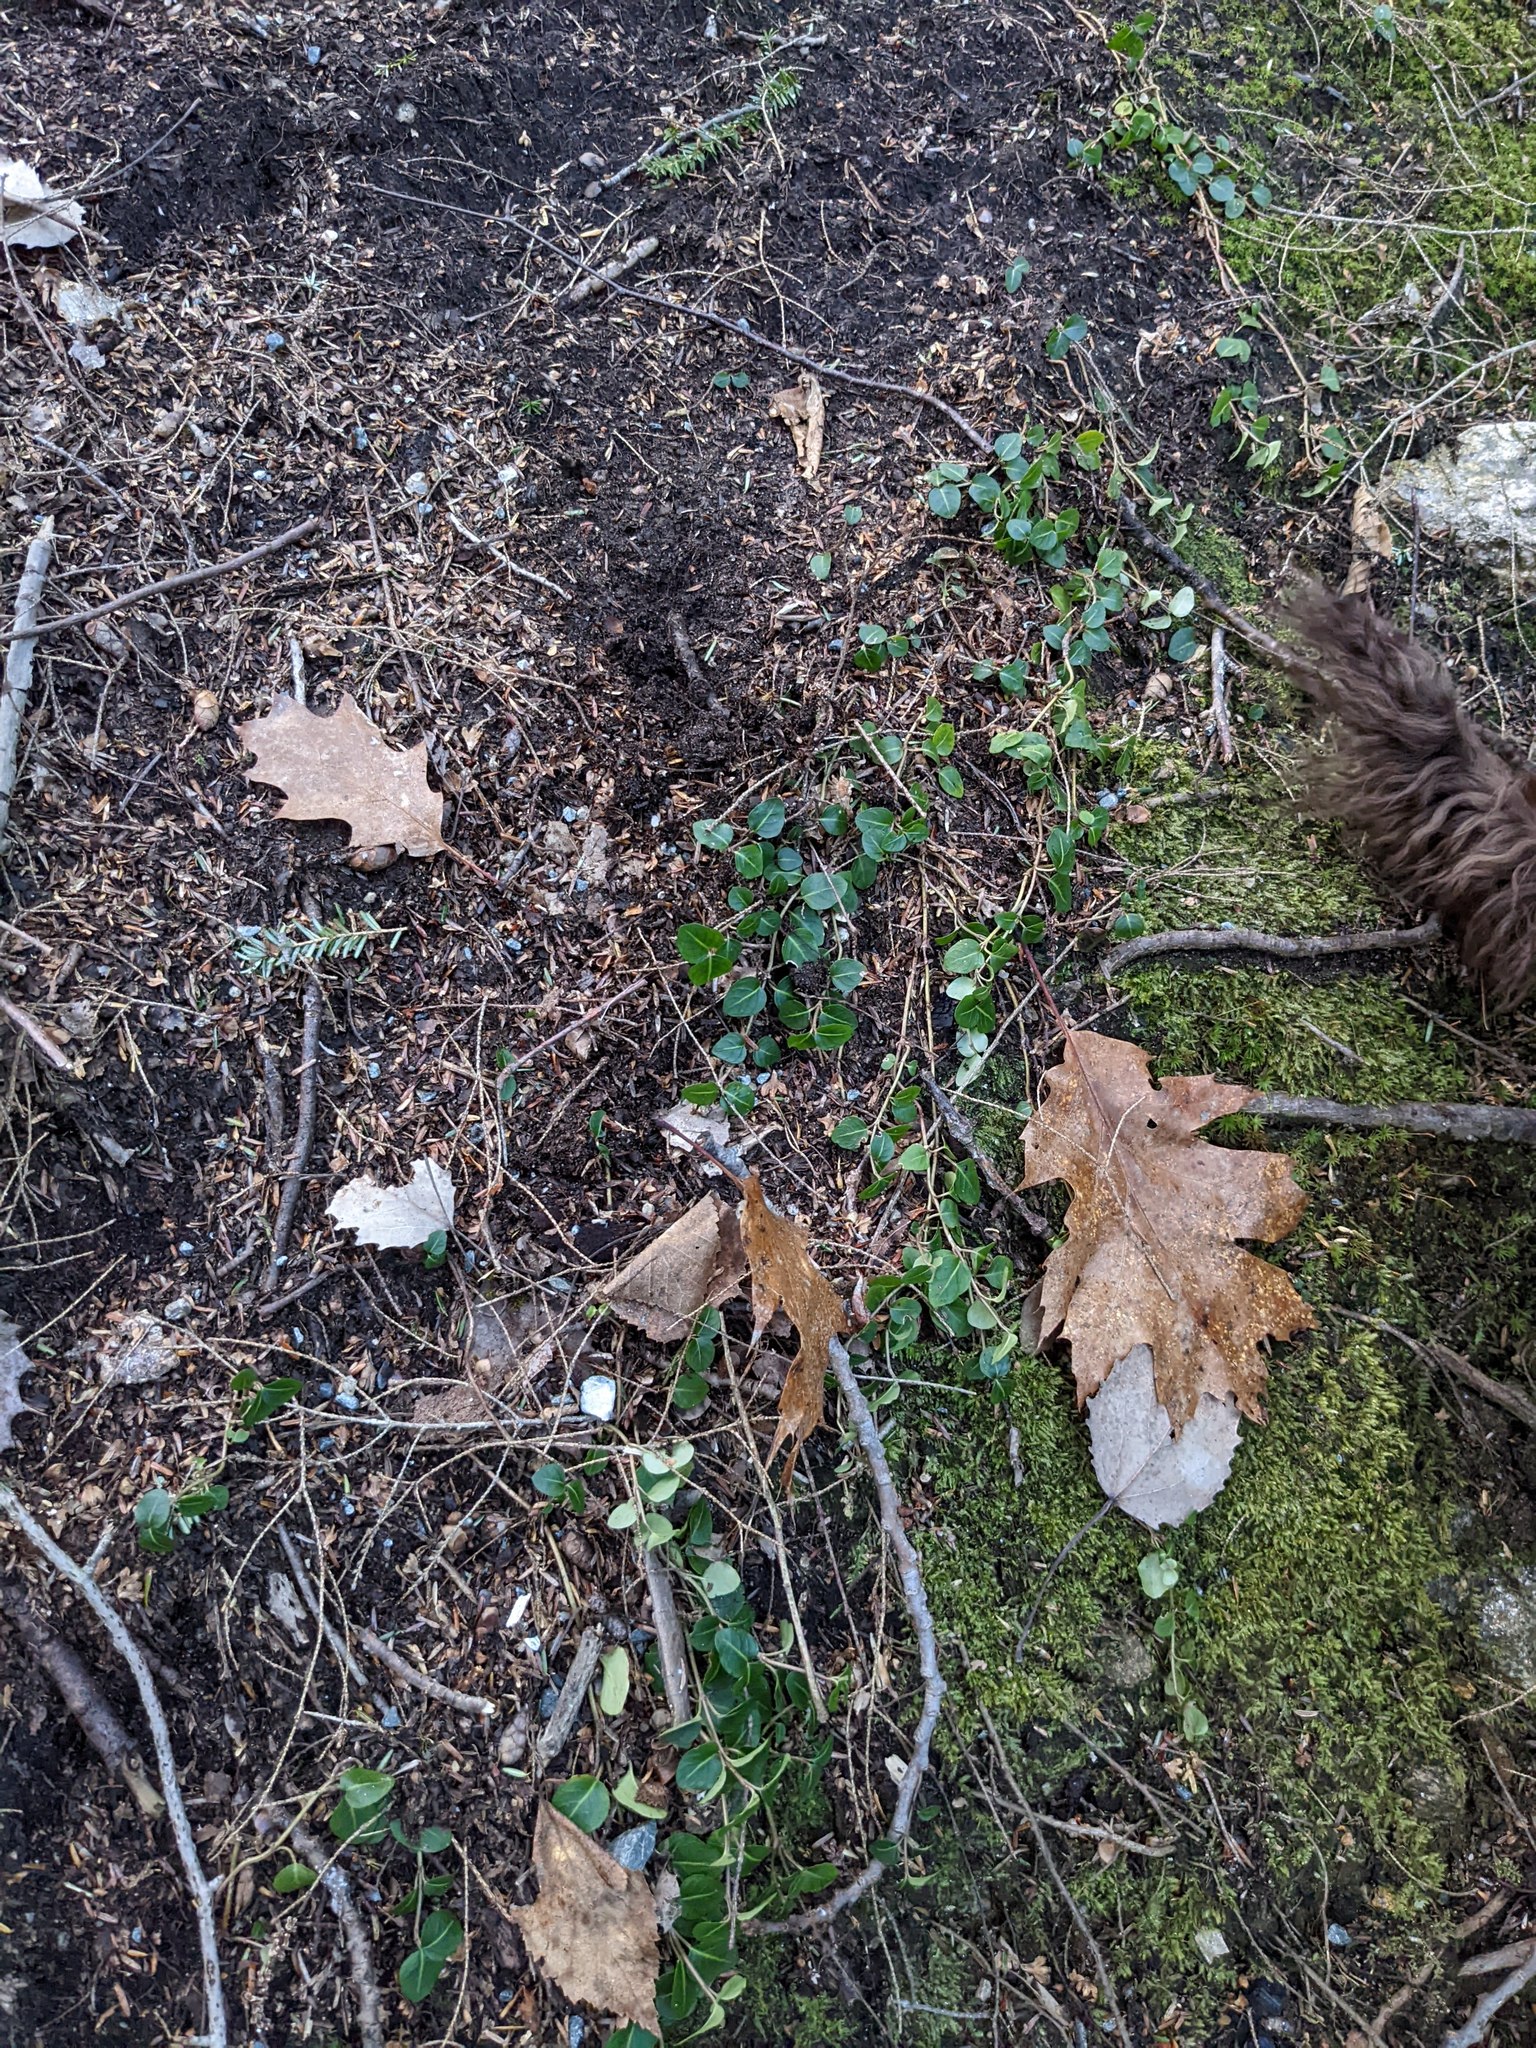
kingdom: Plantae
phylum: Tracheophyta
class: Magnoliopsida
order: Fagales
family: Fagaceae
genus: Quercus
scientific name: Quercus rubra
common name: Red oak
